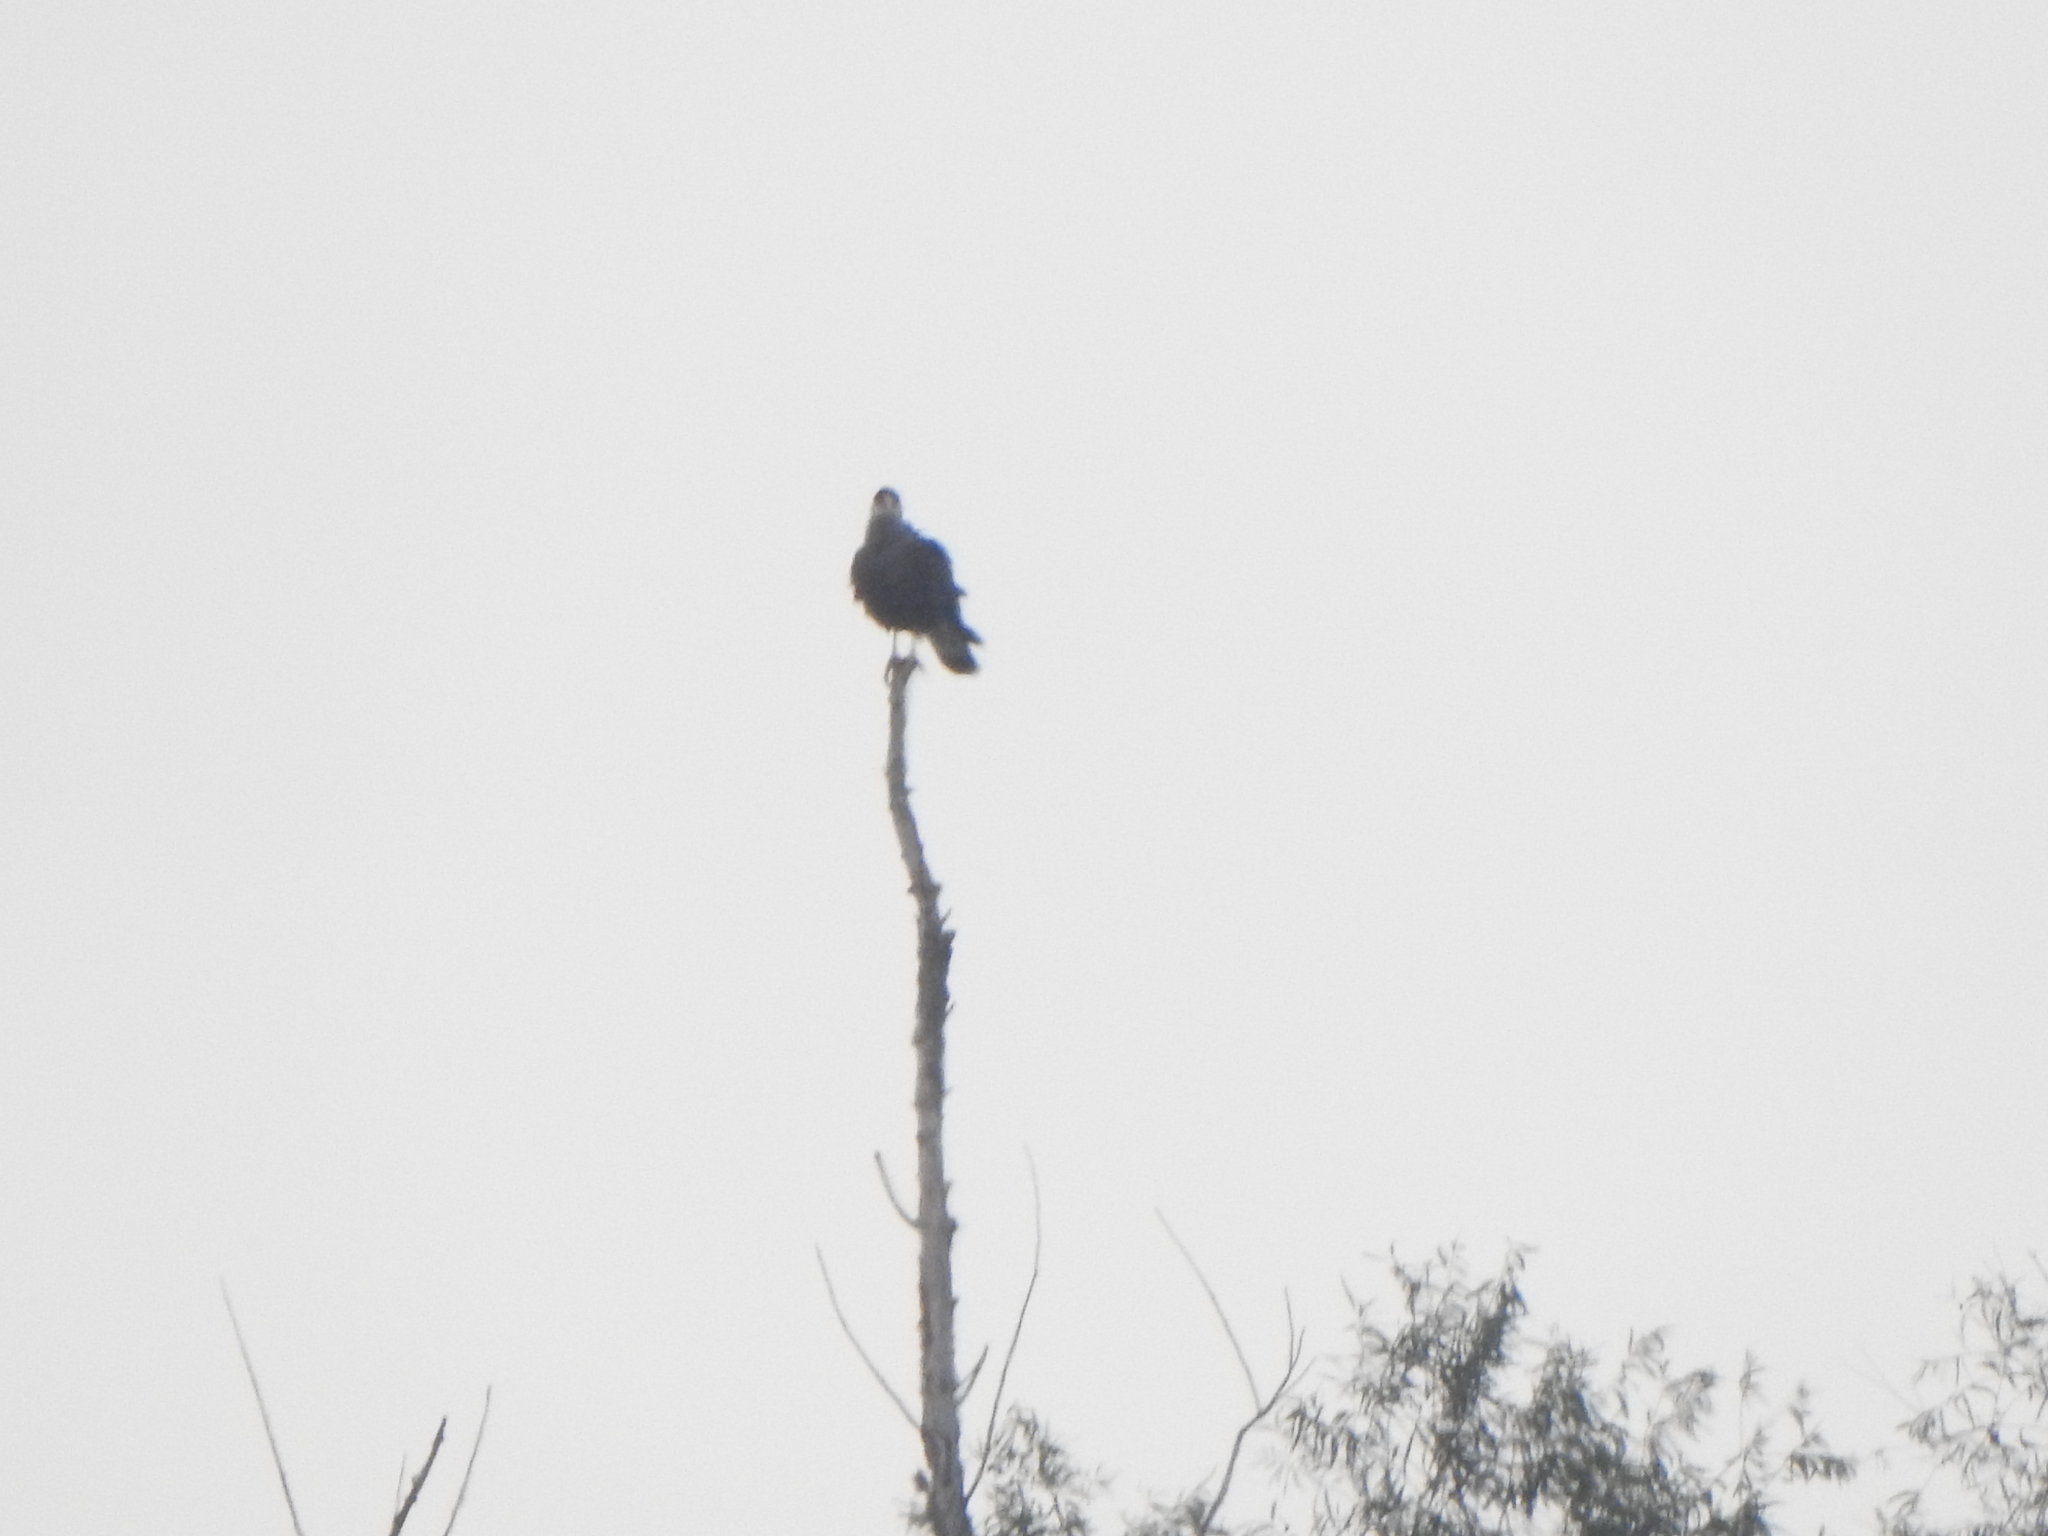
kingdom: Animalia
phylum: Chordata
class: Aves
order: Falconiformes
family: Falconidae
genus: Caracara
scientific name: Caracara plancus
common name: Southern caracara
